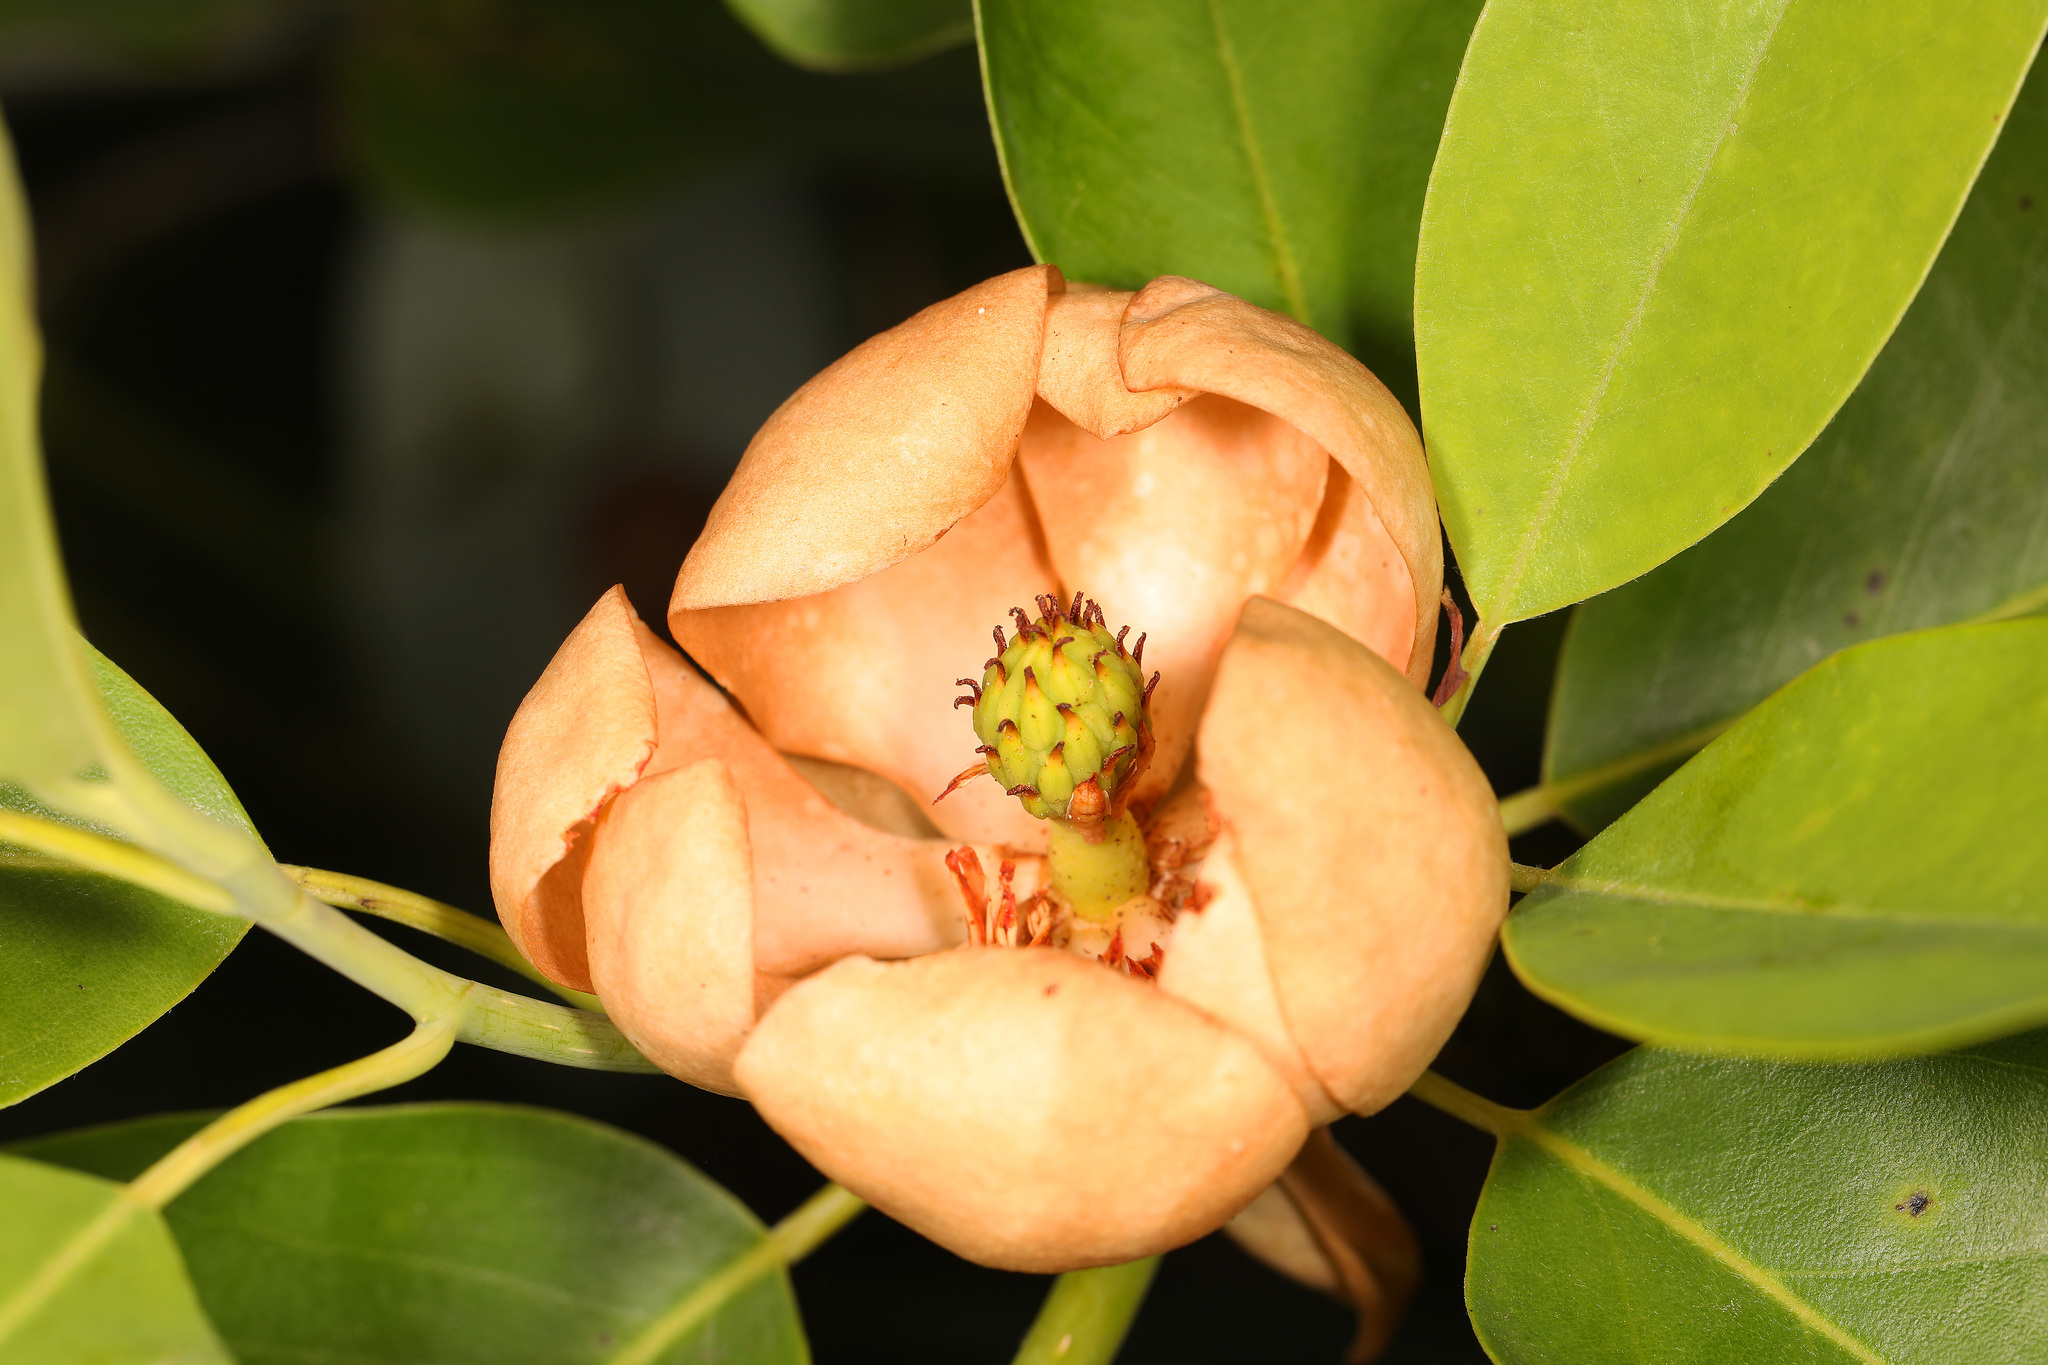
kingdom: Plantae
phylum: Tracheophyta
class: Magnoliopsida
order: Magnoliales
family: Magnoliaceae
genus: Magnolia
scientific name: Magnolia virginiana
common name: Swamp bay
